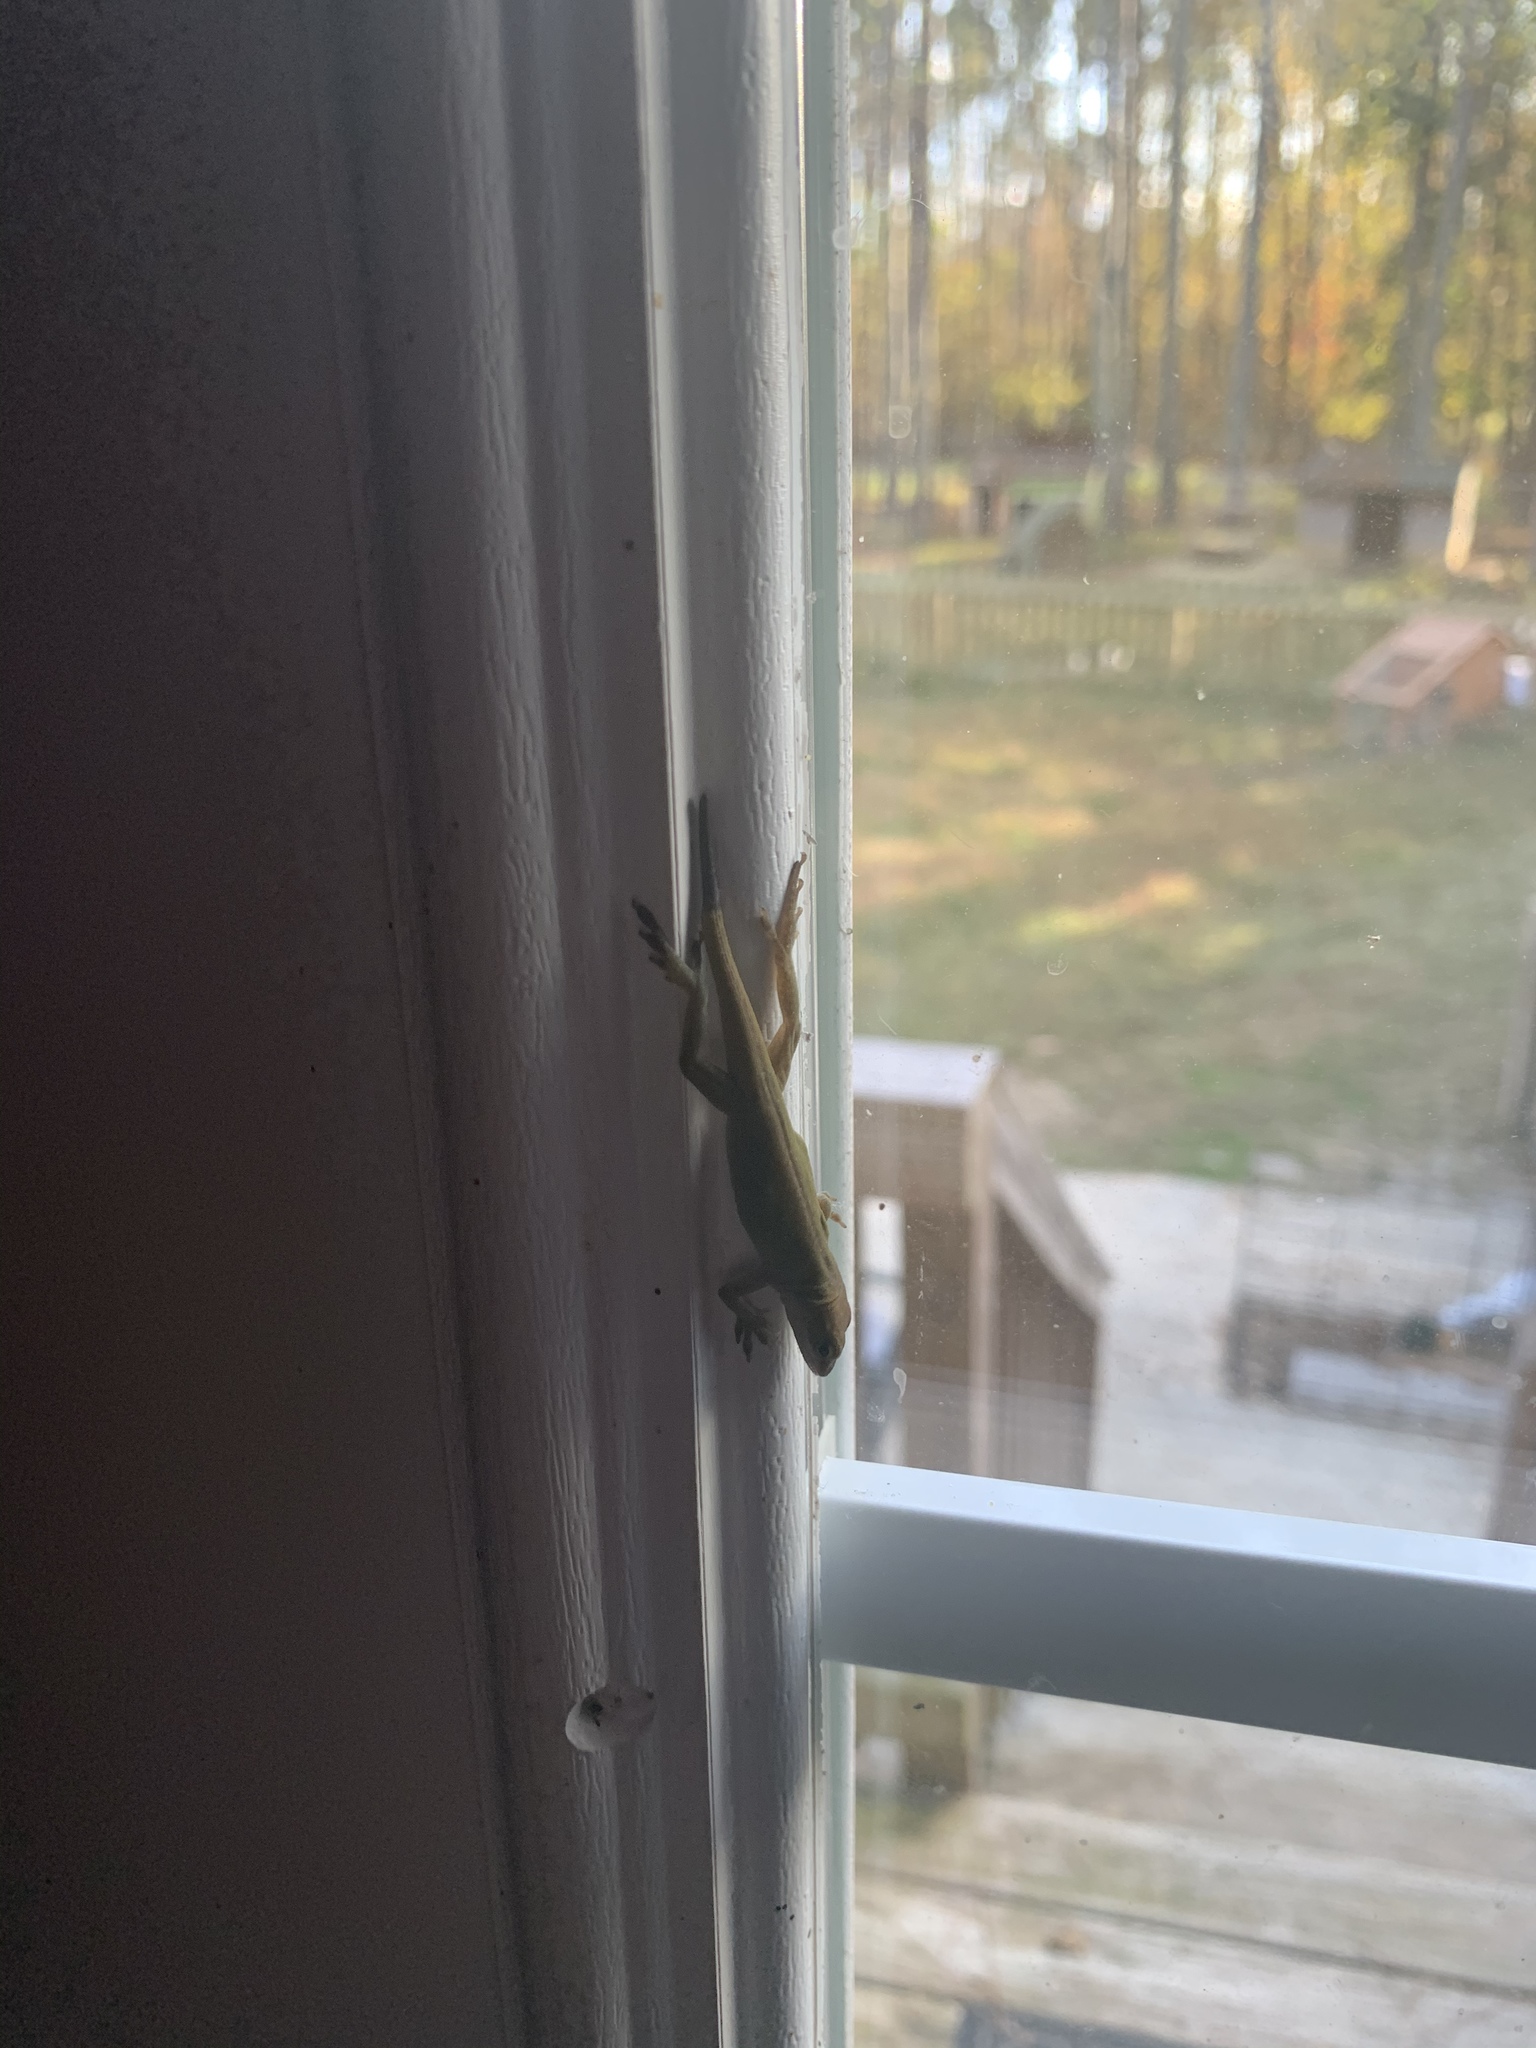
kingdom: Animalia
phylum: Chordata
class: Squamata
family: Dactyloidae
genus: Anolis
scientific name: Anolis carolinensis
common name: Green anole
